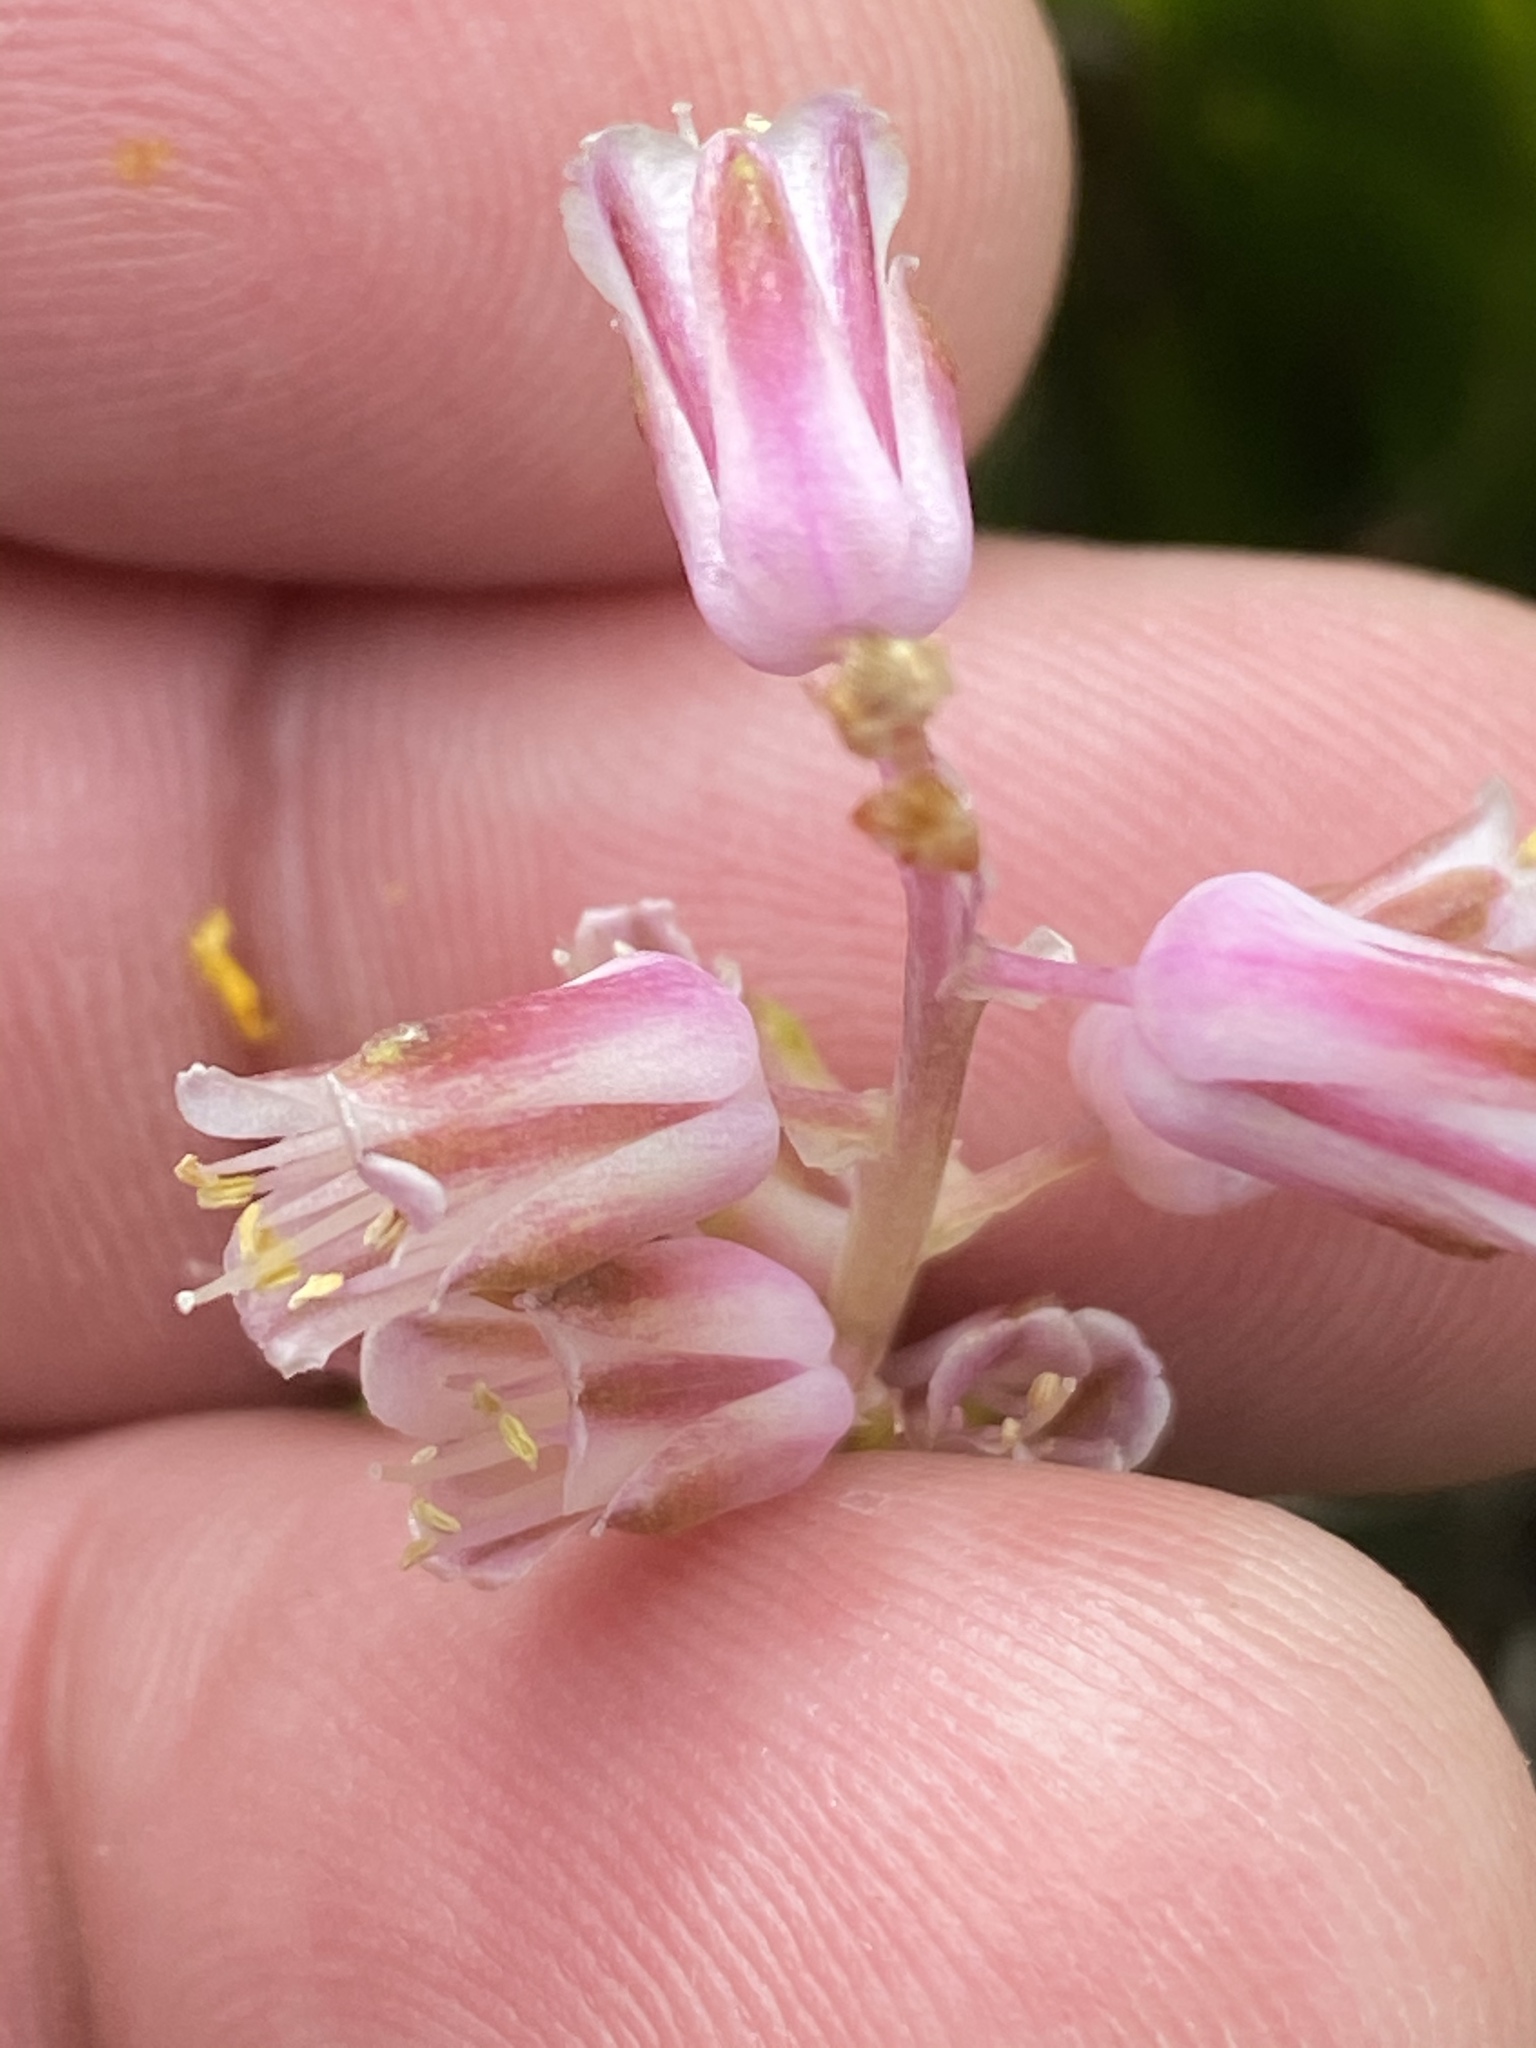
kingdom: Plantae
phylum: Tracheophyta
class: Liliopsida
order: Asparagales
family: Asparagaceae
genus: Lachenalia
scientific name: Lachenalia youngii
